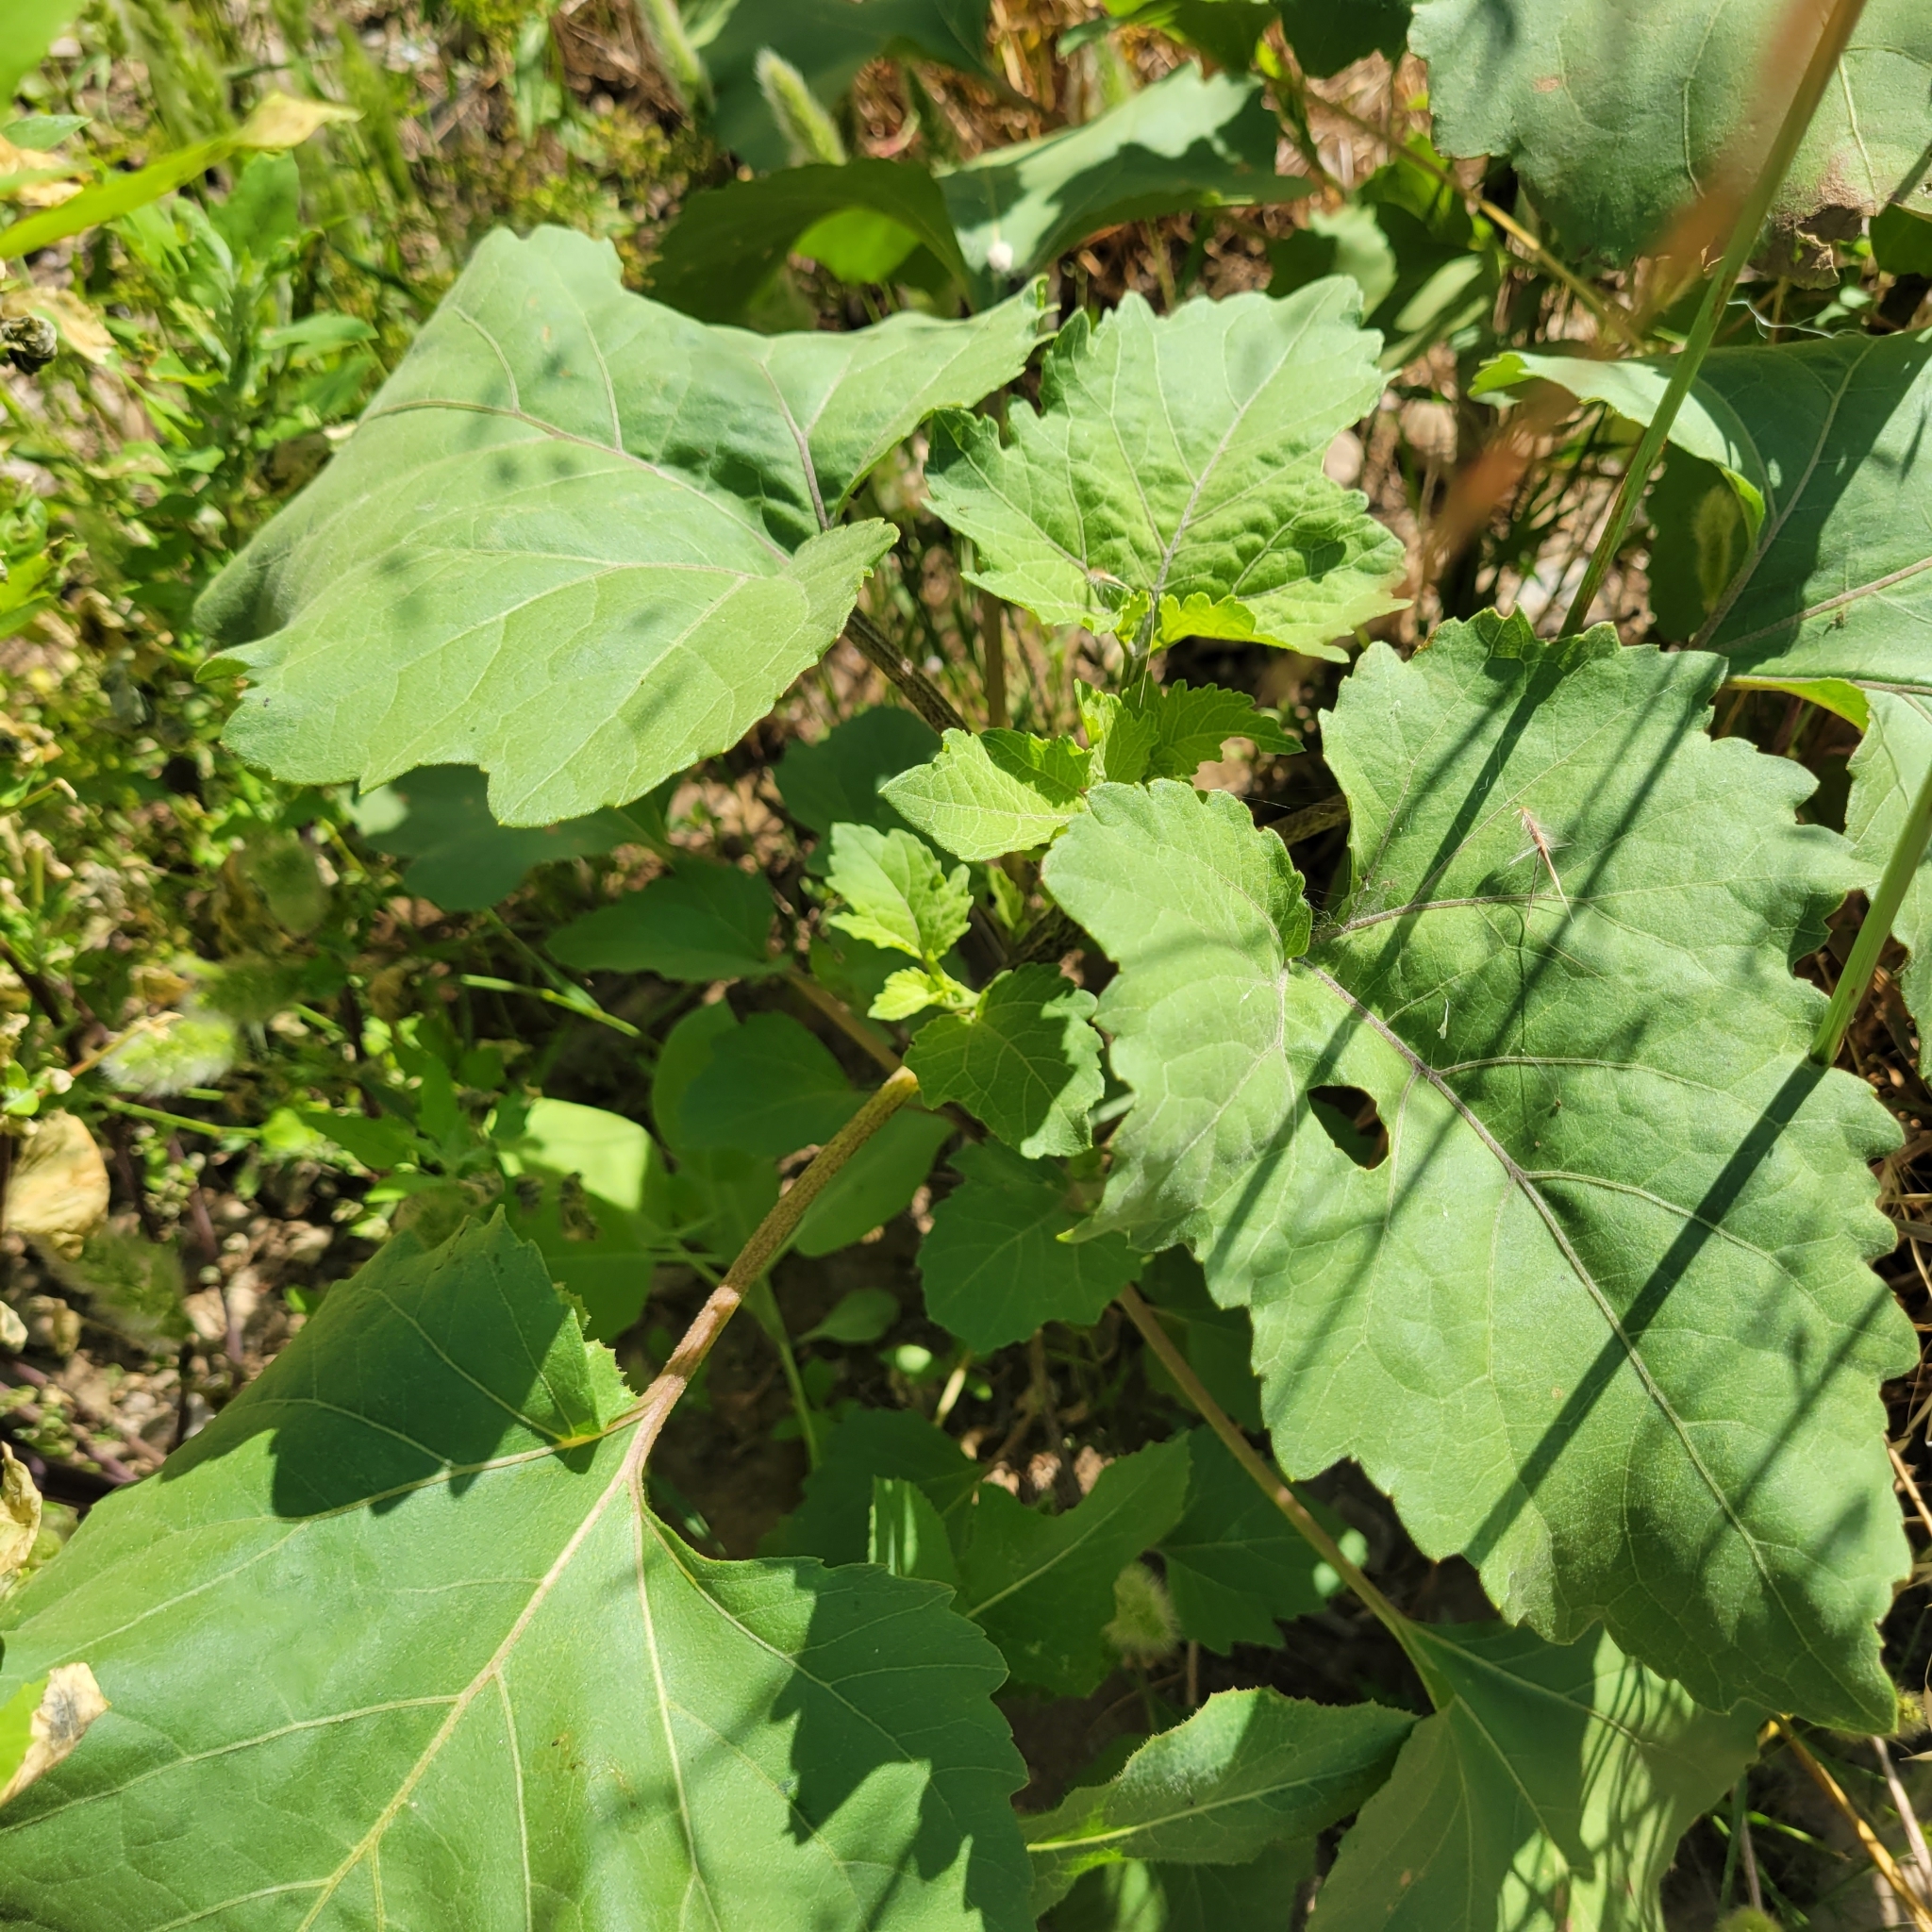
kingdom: Plantae
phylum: Tracheophyta
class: Magnoliopsida
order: Asterales
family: Asteraceae
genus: Xanthium
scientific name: Xanthium strumarium
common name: Rough cocklebur
